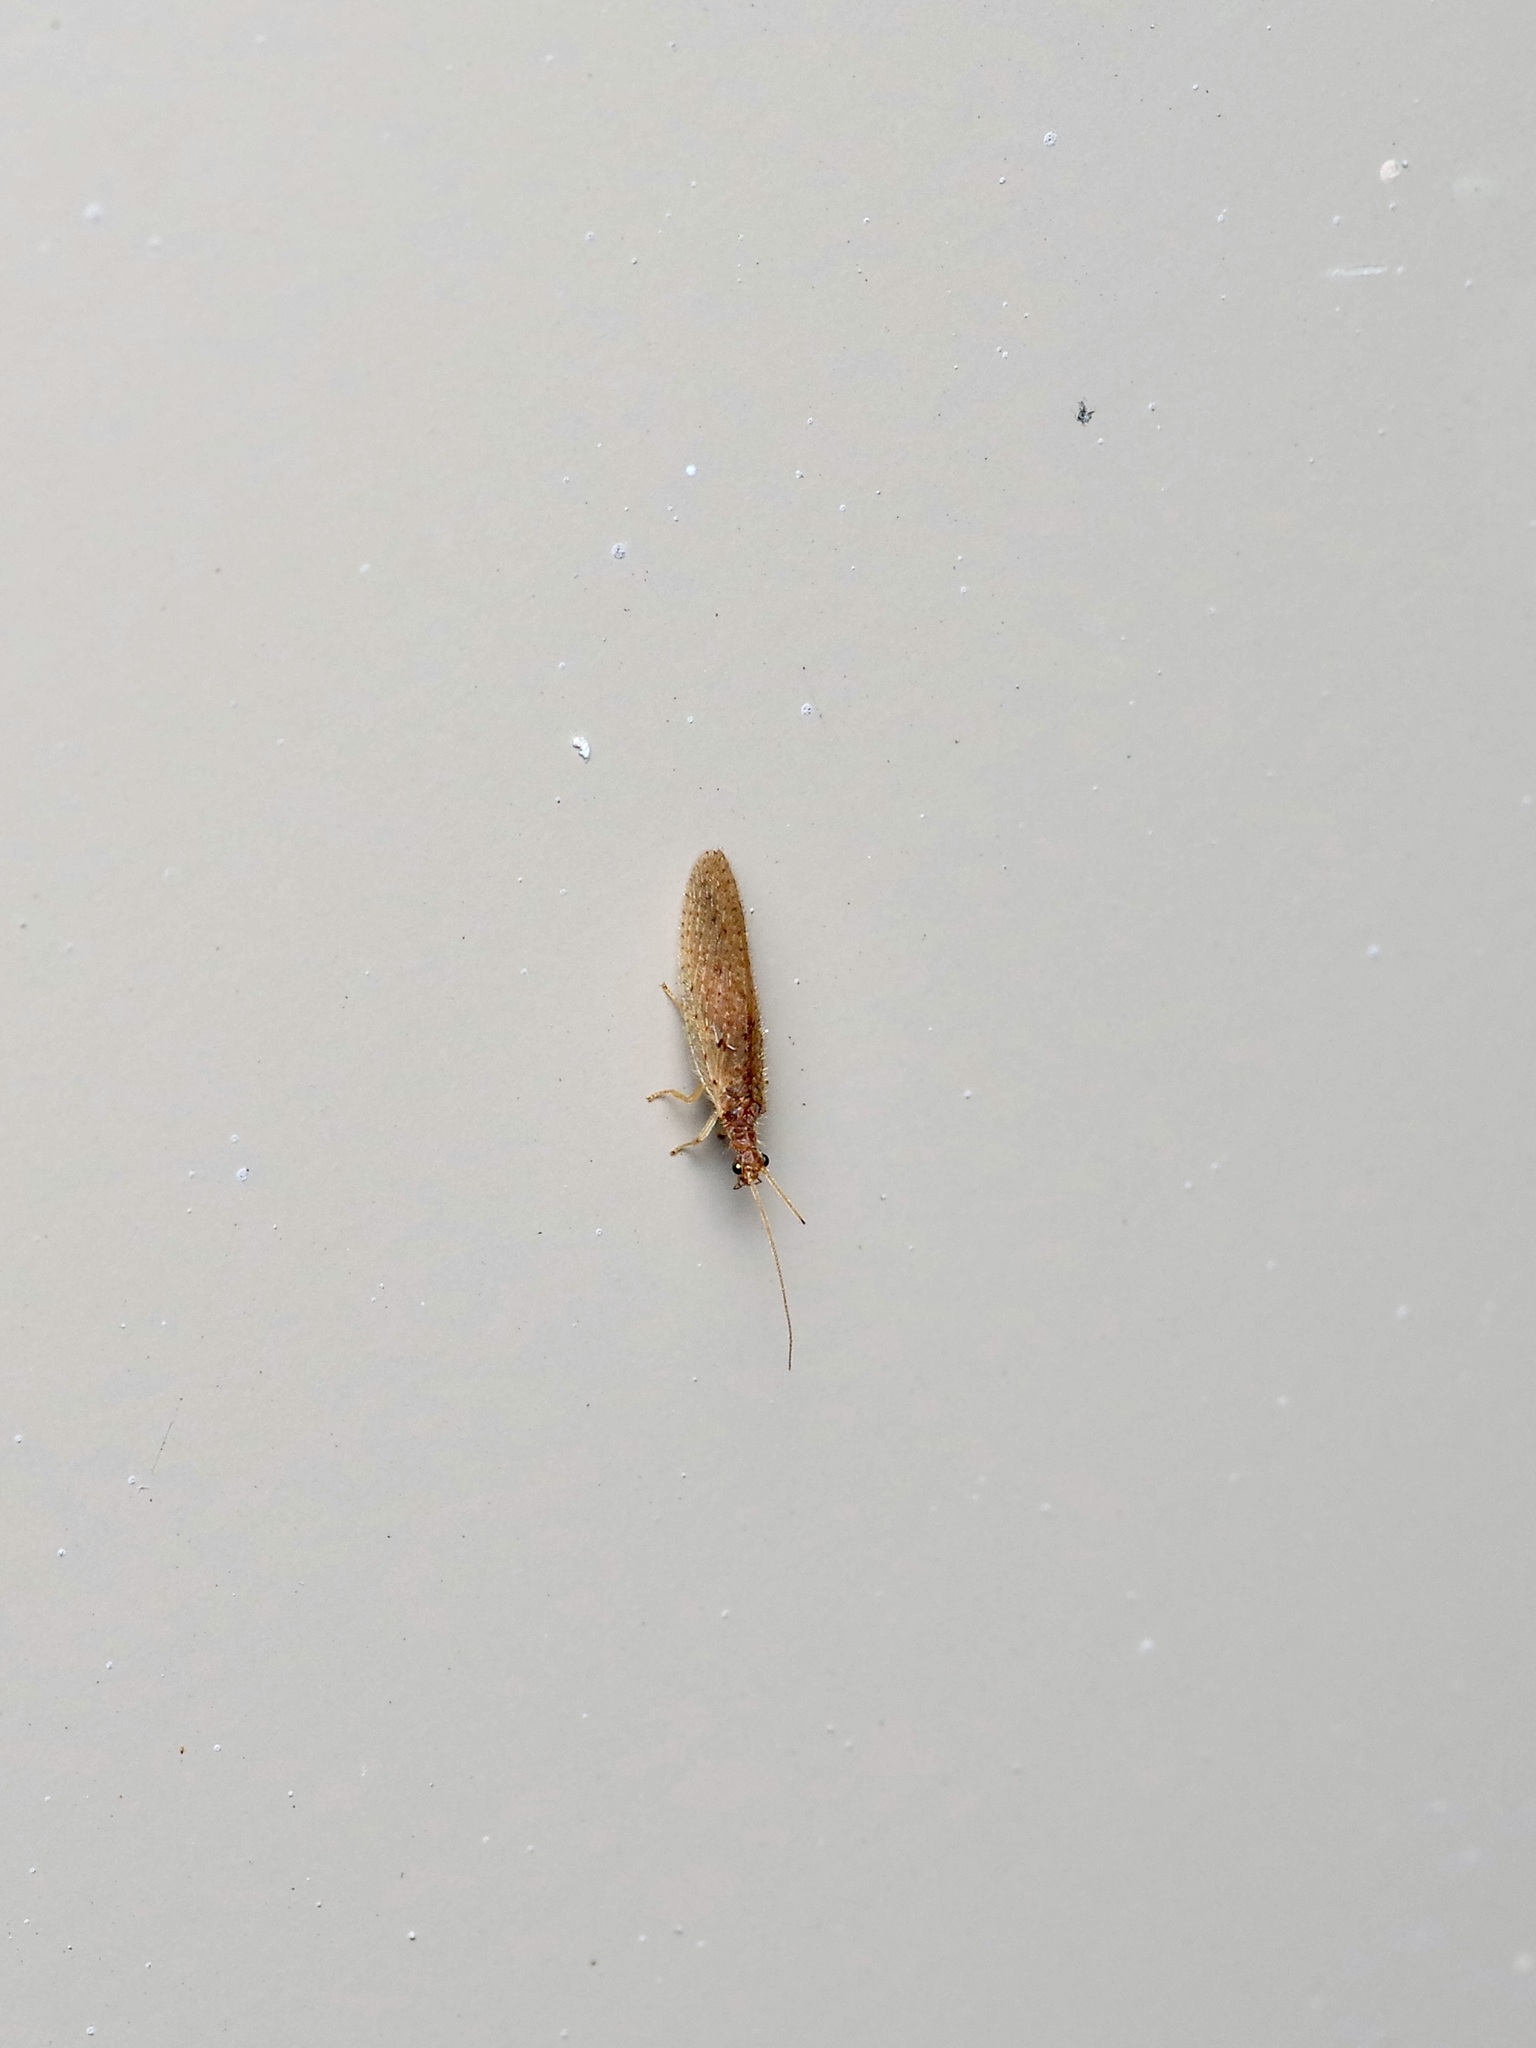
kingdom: Animalia
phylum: Arthropoda
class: Insecta
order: Neuroptera
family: Hemerobiidae
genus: Micromus
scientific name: Micromus subanticus
